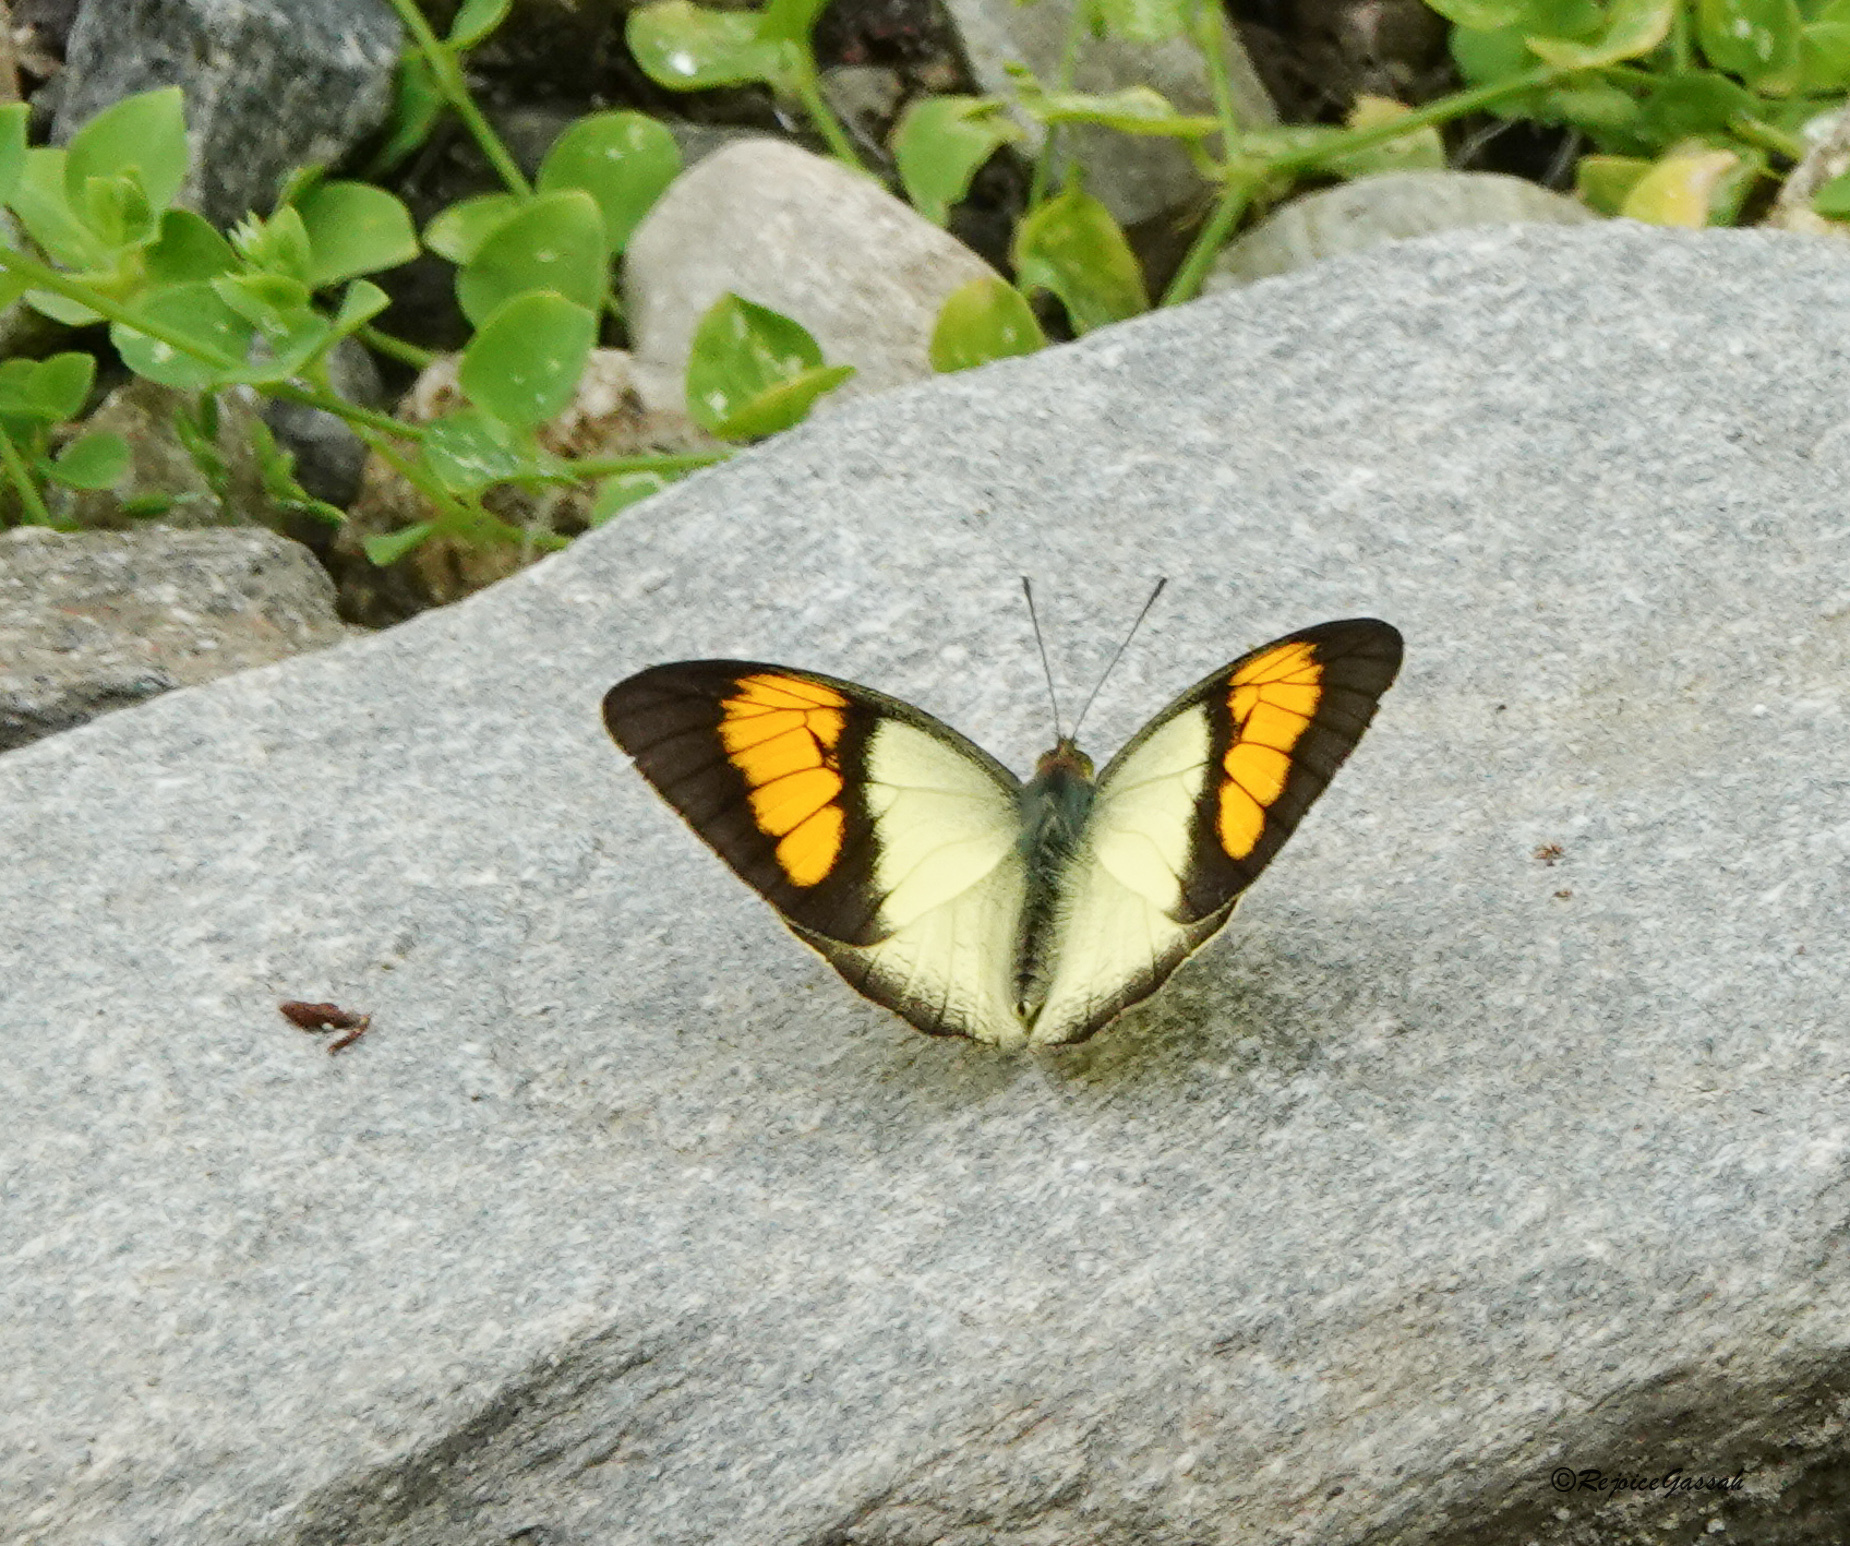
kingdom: Animalia
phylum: Arthropoda
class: Insecta
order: Lepidoptera
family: Pieridae
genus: Ixias
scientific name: Ixias pyrene
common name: Yellow orange tip
